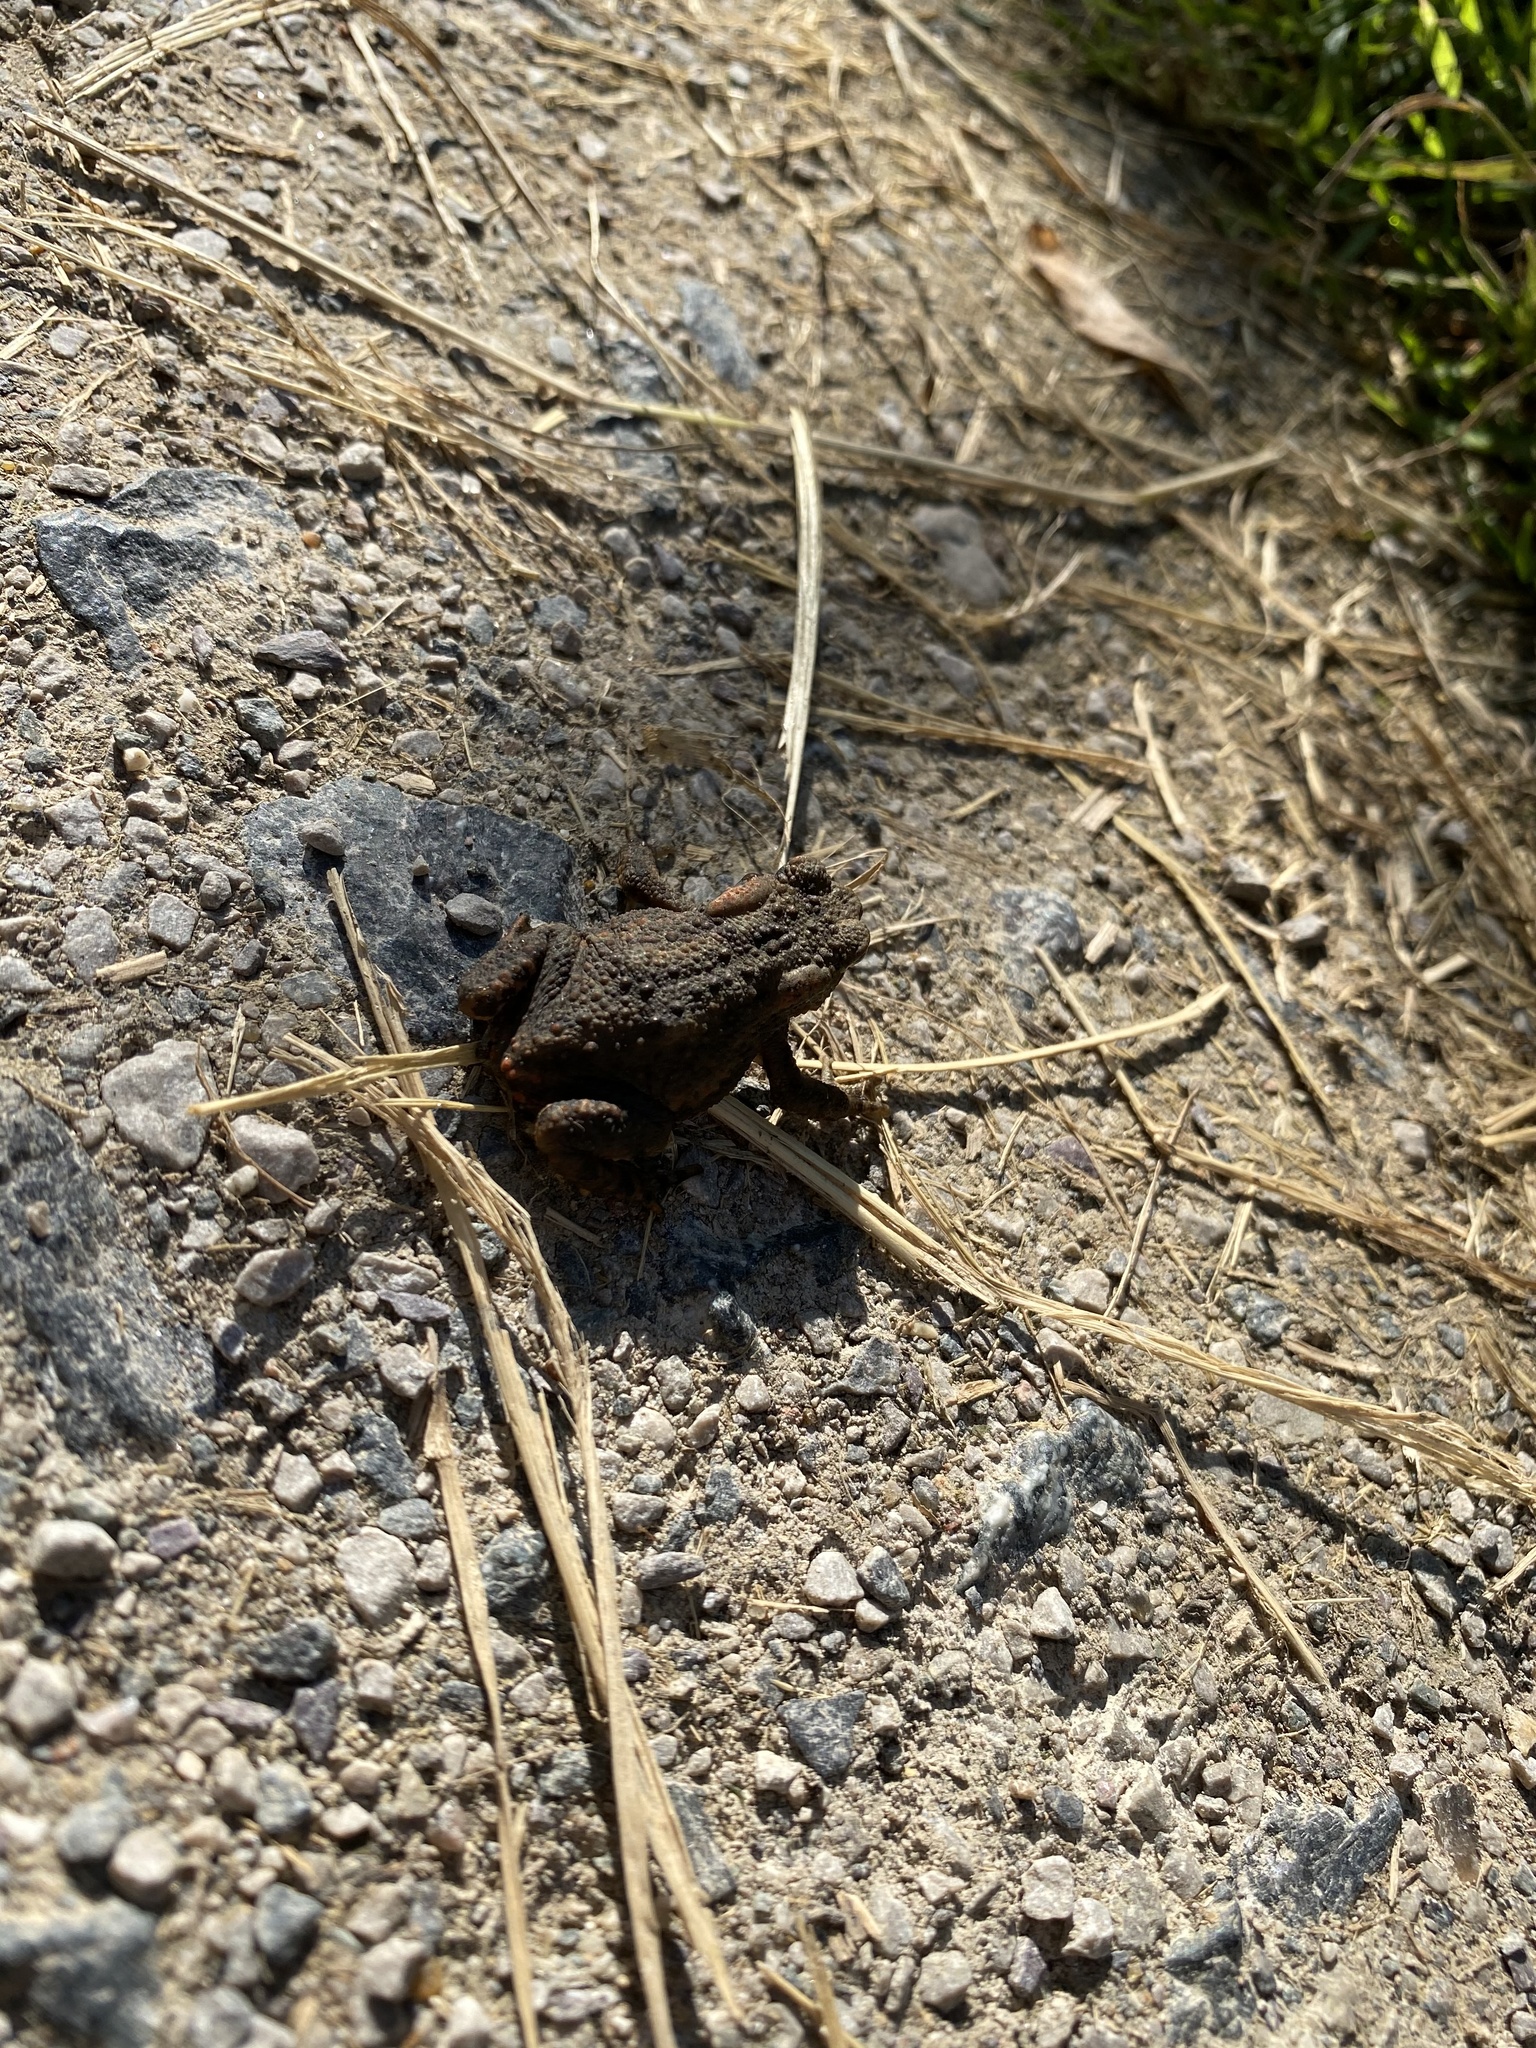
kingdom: Animalia
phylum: Chordata
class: Amphibia
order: Anura
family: Bufonidae
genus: Bufo
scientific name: Bufo bufo
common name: Common toad
